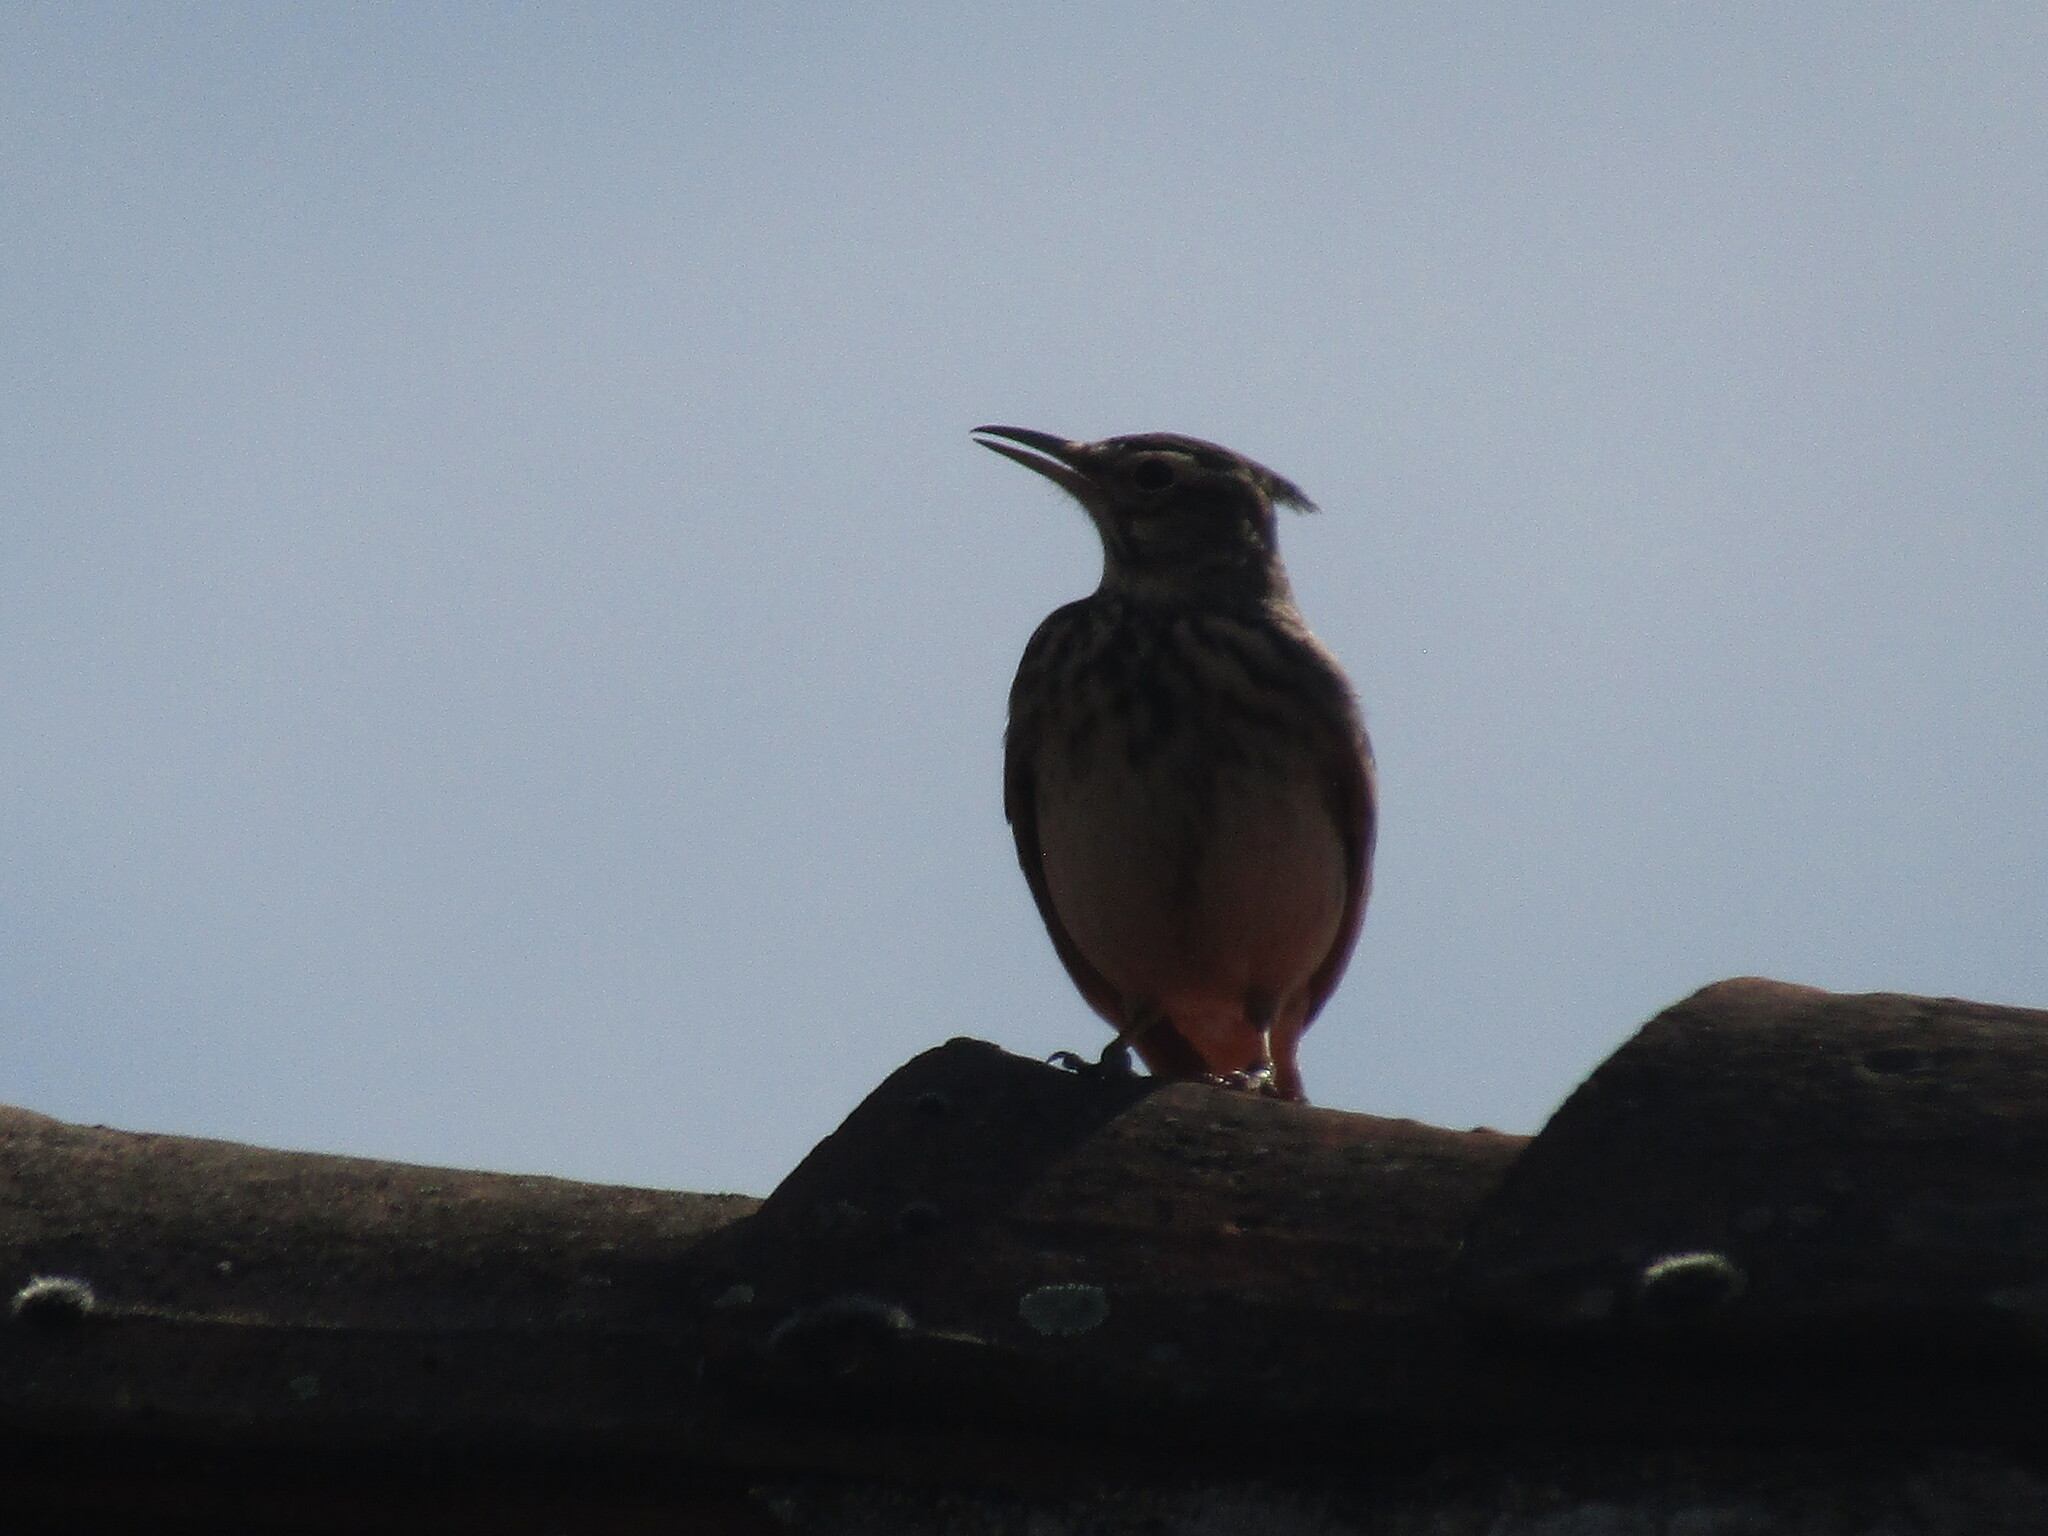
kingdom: Animalia
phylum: Chordata
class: Aves
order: Passeriformes
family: Alaudidae
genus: Galerida
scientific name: Galerida cristata
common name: Crested lark
